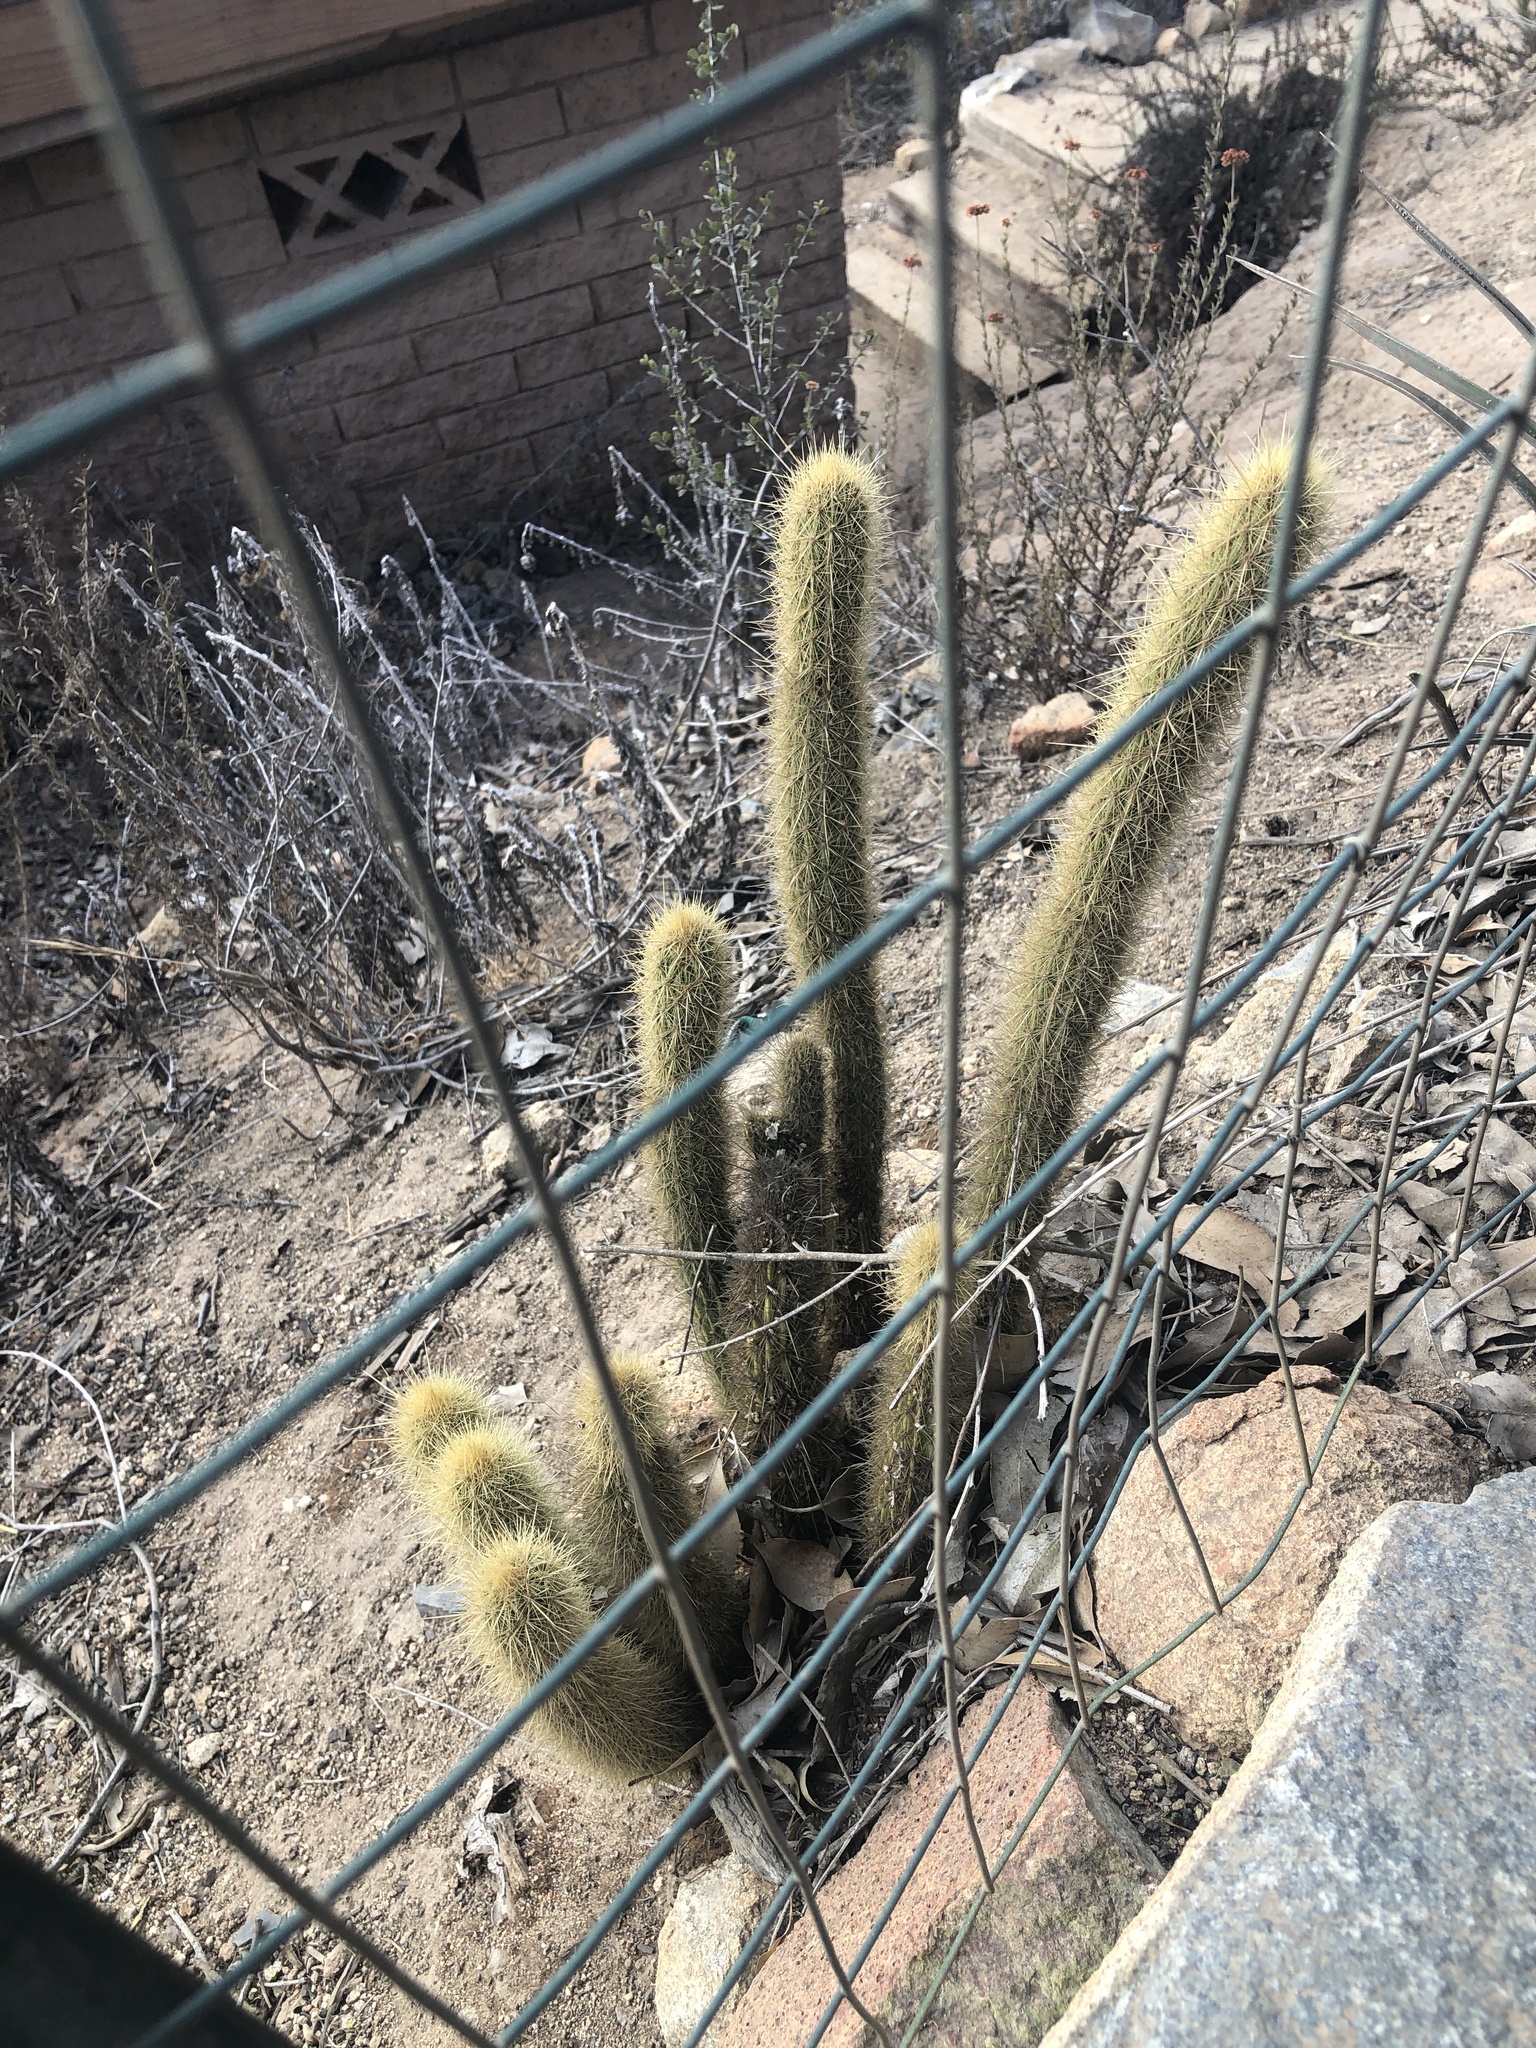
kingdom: Plantae
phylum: Tracheophyta
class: Magnoliopsida
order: Caryophyllales
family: Cactaceae
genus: Bergerocactus
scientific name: Bergerocactus emoryi
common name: Golden snakecactus
